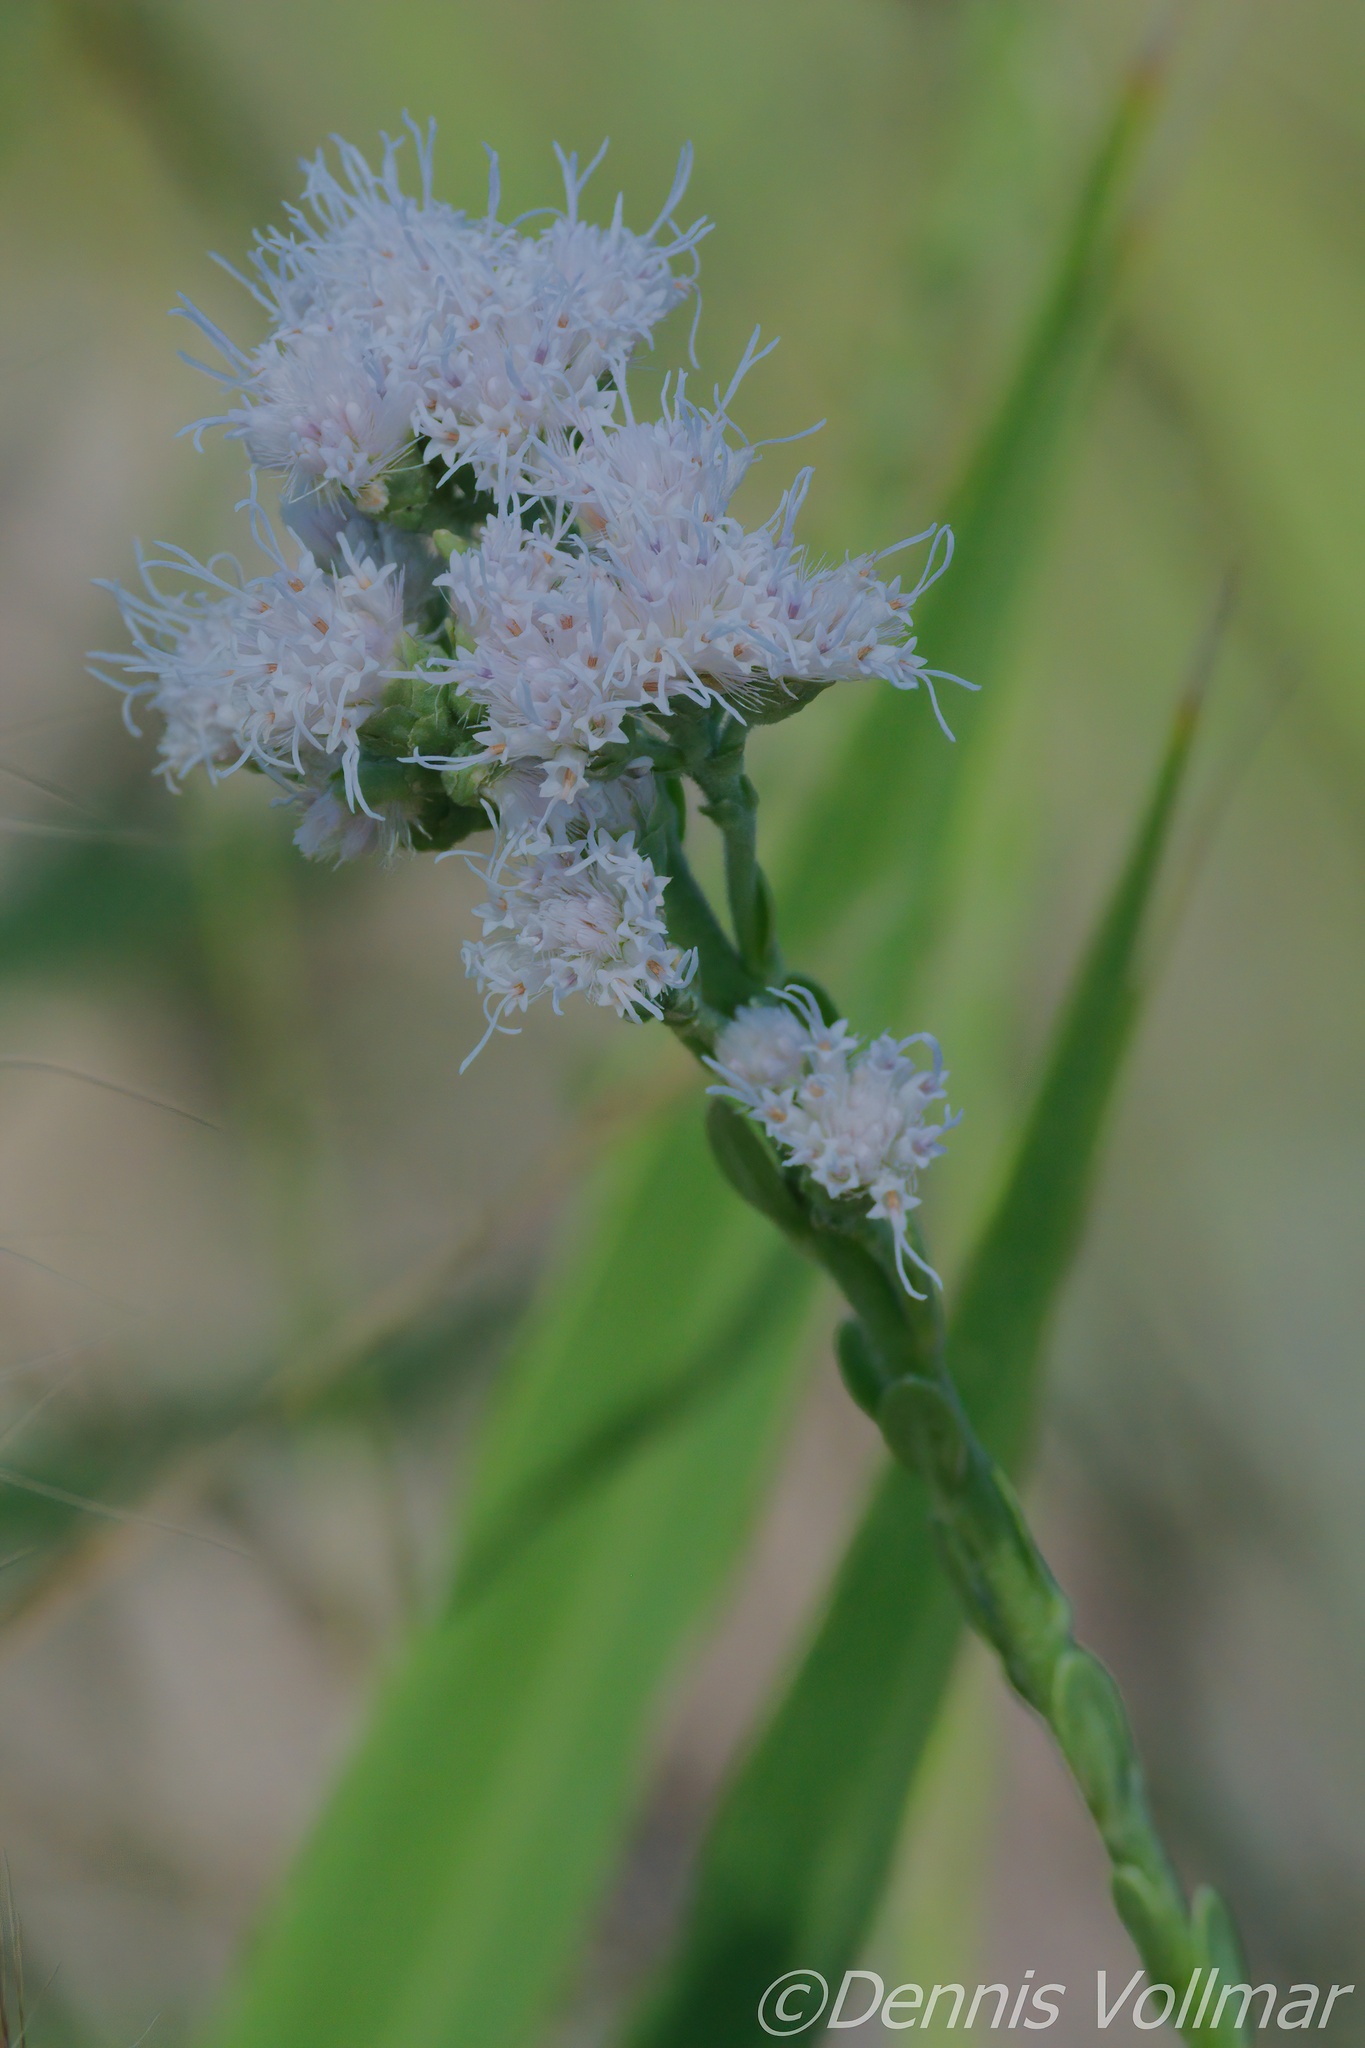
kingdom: Plantae
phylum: Tracheophyta
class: Magnoliopsida
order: Asterales
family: Asteraceae
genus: Carphephorus
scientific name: Carphephorus corymbosus
